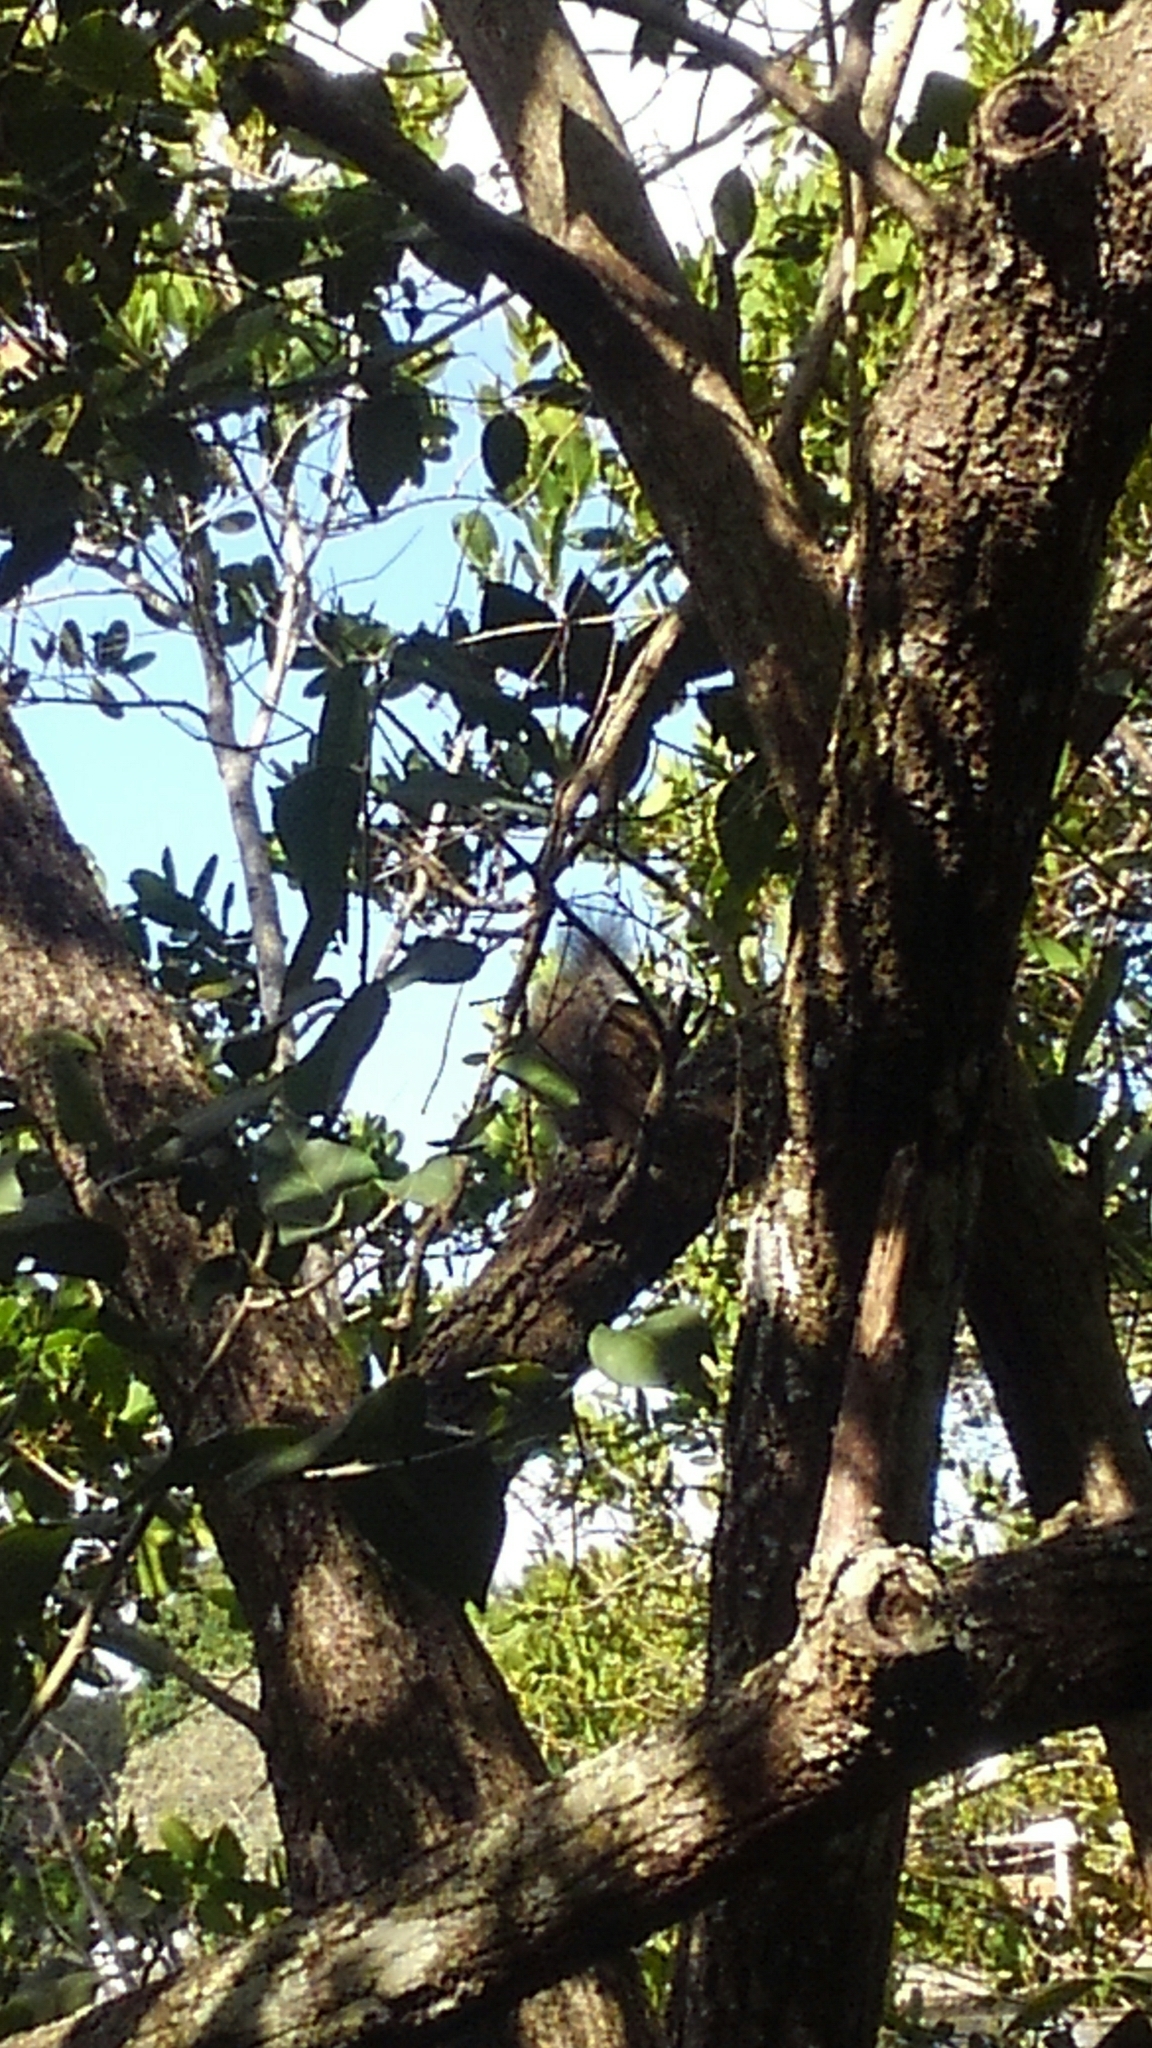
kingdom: Animalia
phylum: Chordata
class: Mammalia
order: Rodentia
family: Sciuridae
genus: Sciurus
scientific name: Sciurus carolinensis
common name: Eastern gray squirrel
